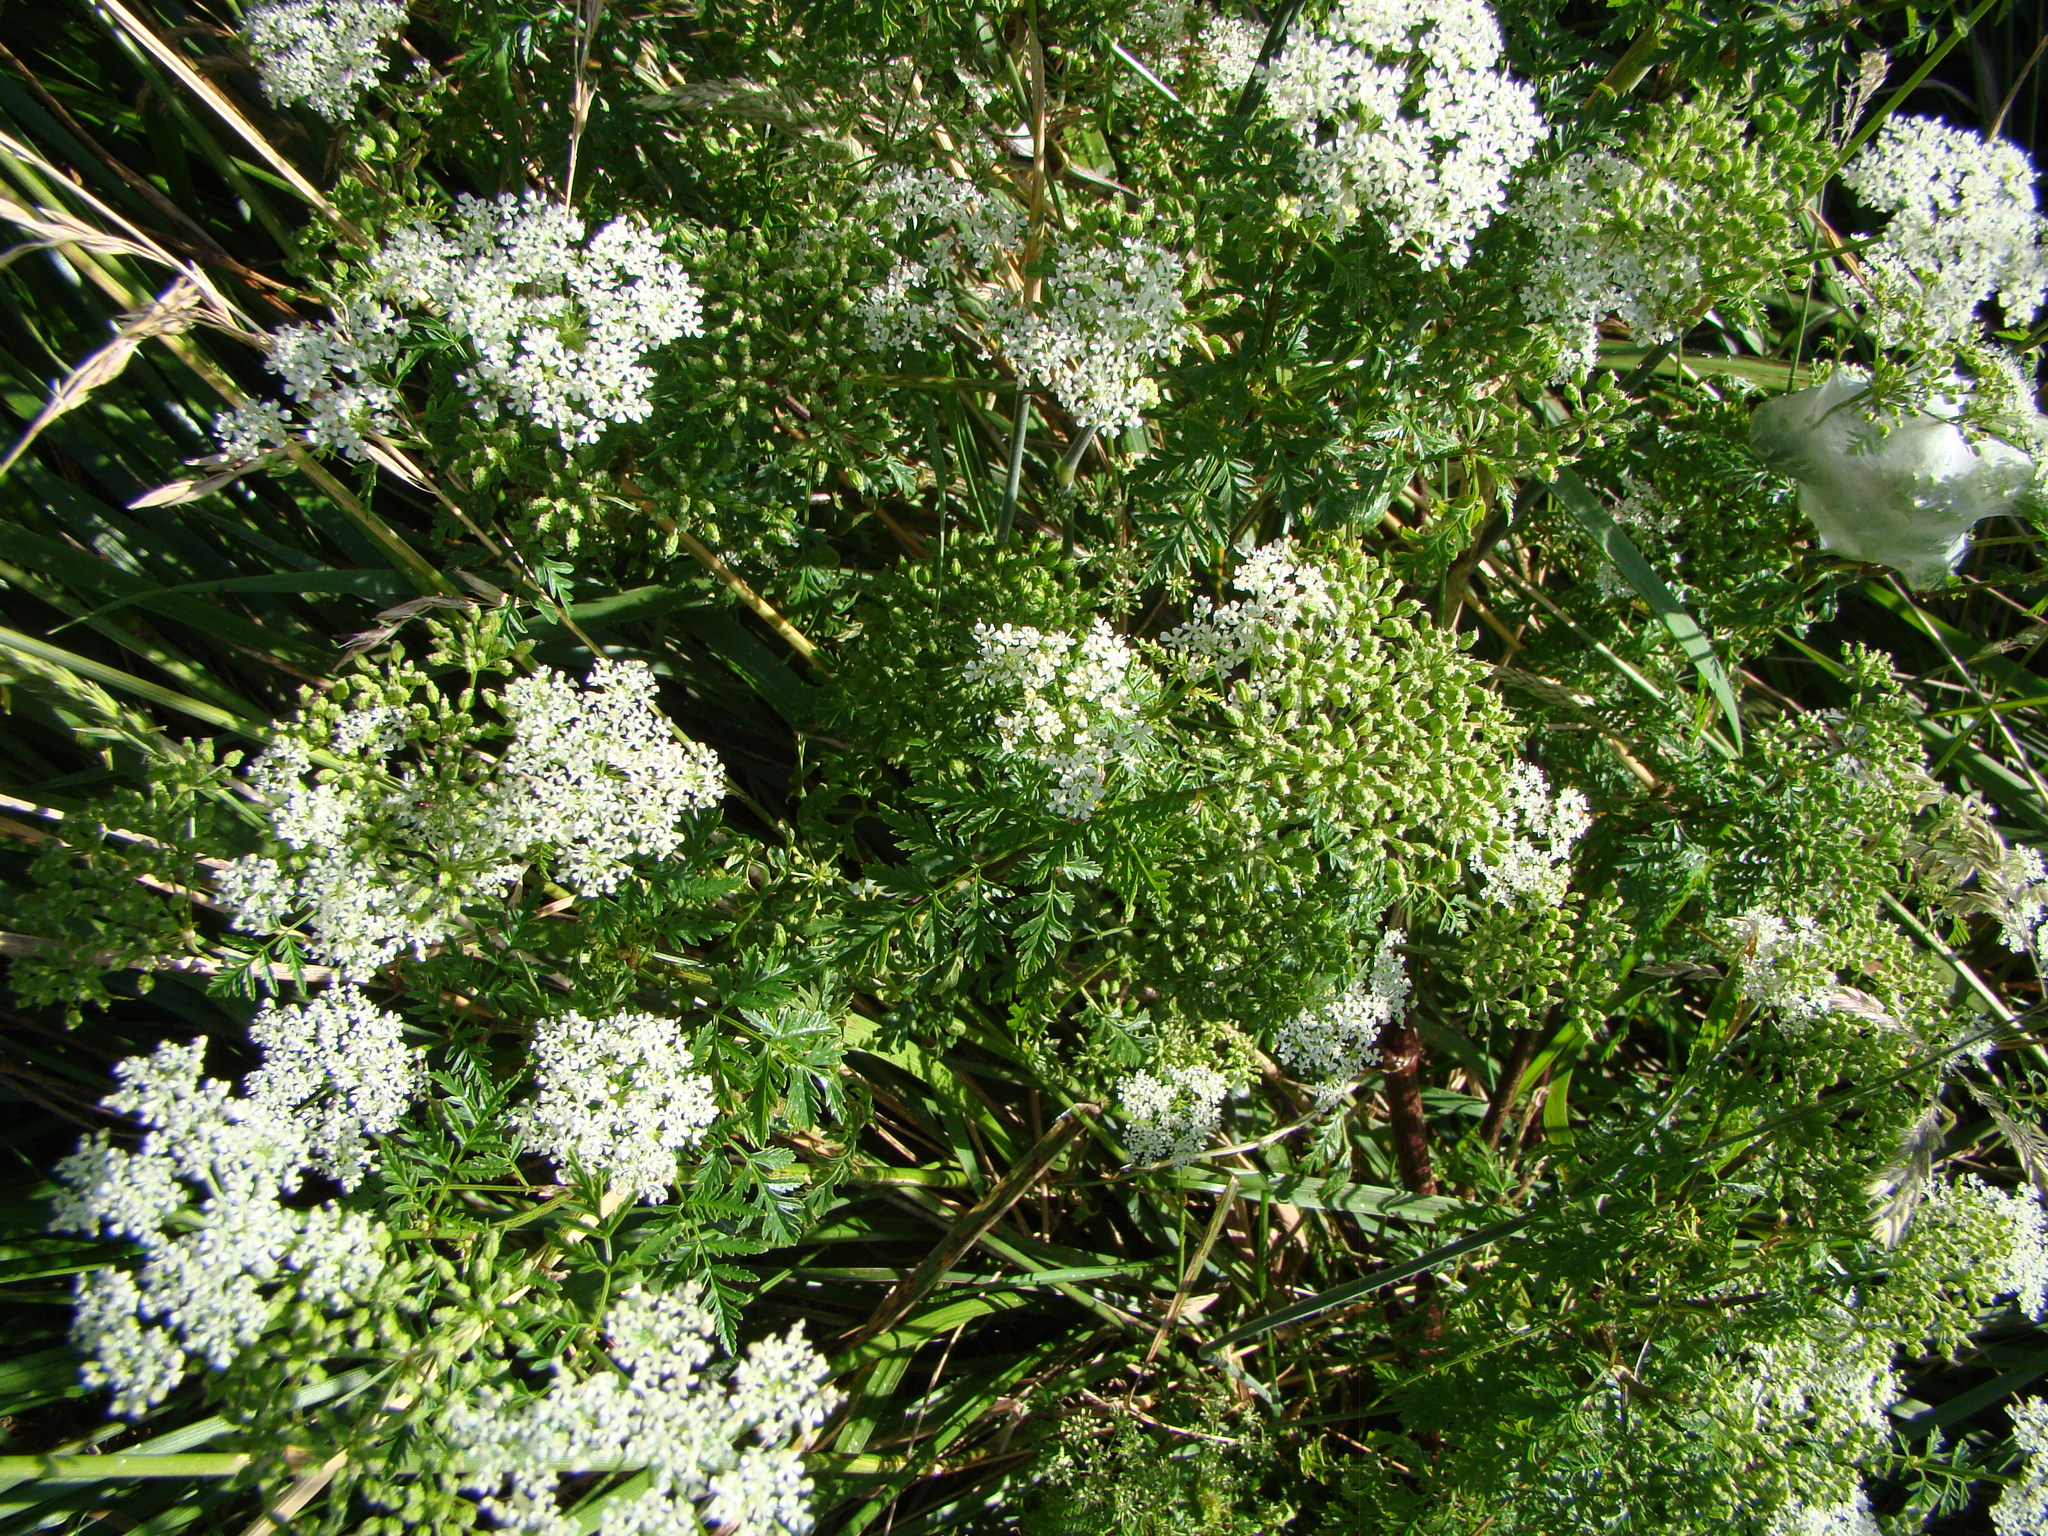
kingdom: Plantae
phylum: Tracheophyta
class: Magnoliopsida
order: Apiales
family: Apiaceae
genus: Conium
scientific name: Conium maculatum
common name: Hemlock
